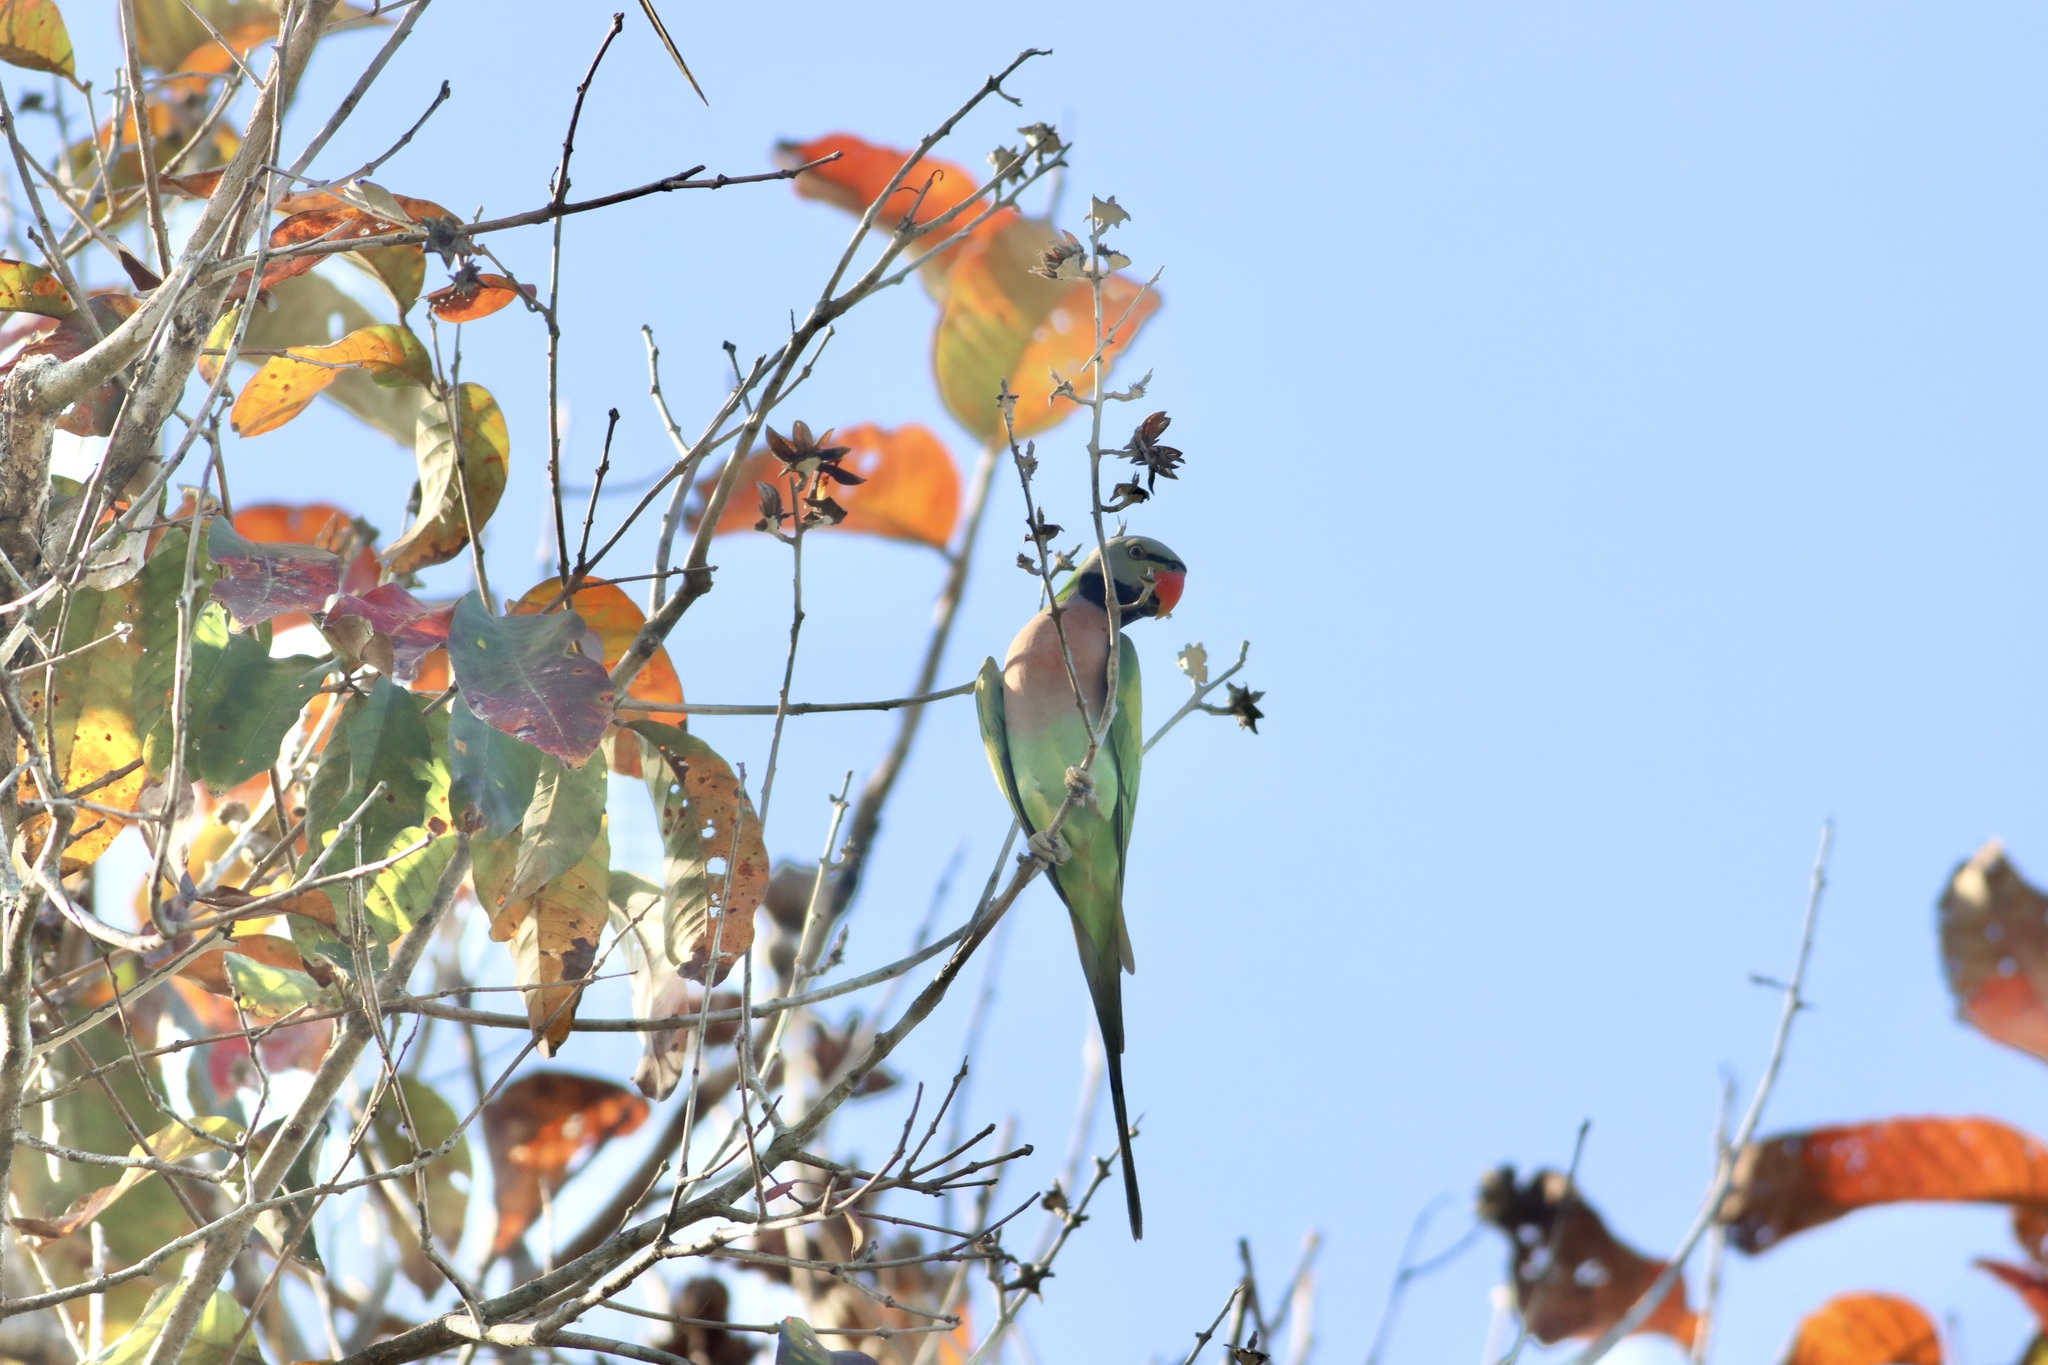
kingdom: Animalia
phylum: Chordata
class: Aves
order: Psittaciformes
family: Psittacidae
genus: Psittacula
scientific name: Psittacula alexandri
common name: Red-breasted parakeet
